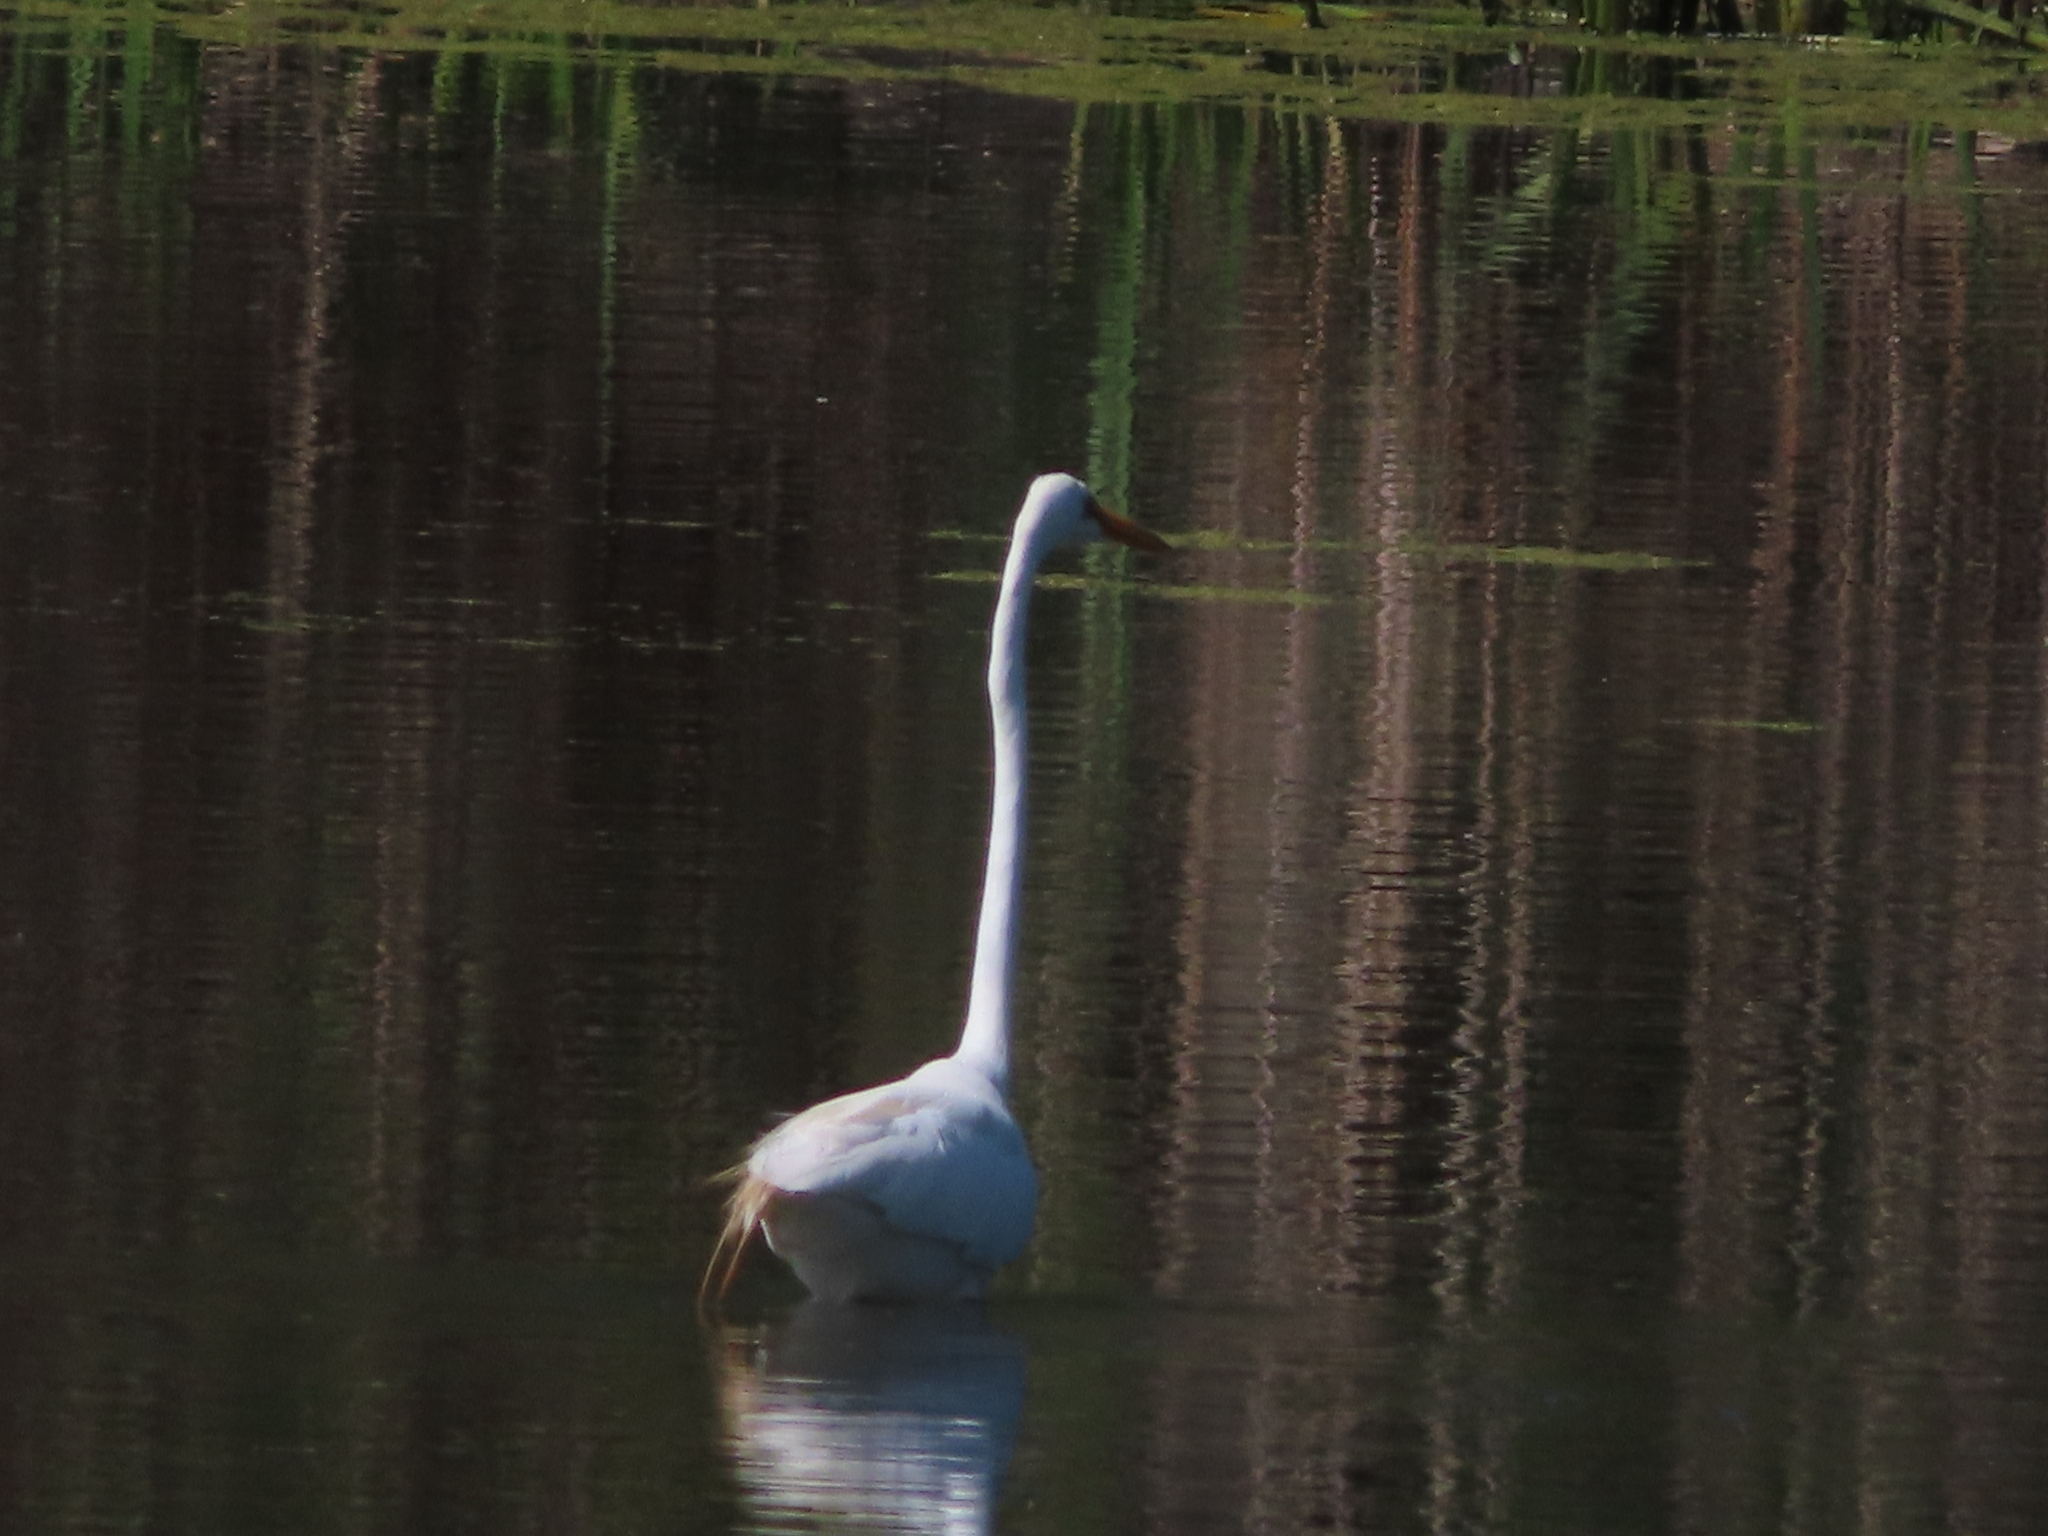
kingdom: Animalia
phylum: Chordata
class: Aves
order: Pelecaniformes
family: Ardeidae
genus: Ardea
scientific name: Ardea alba
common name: Great egret
